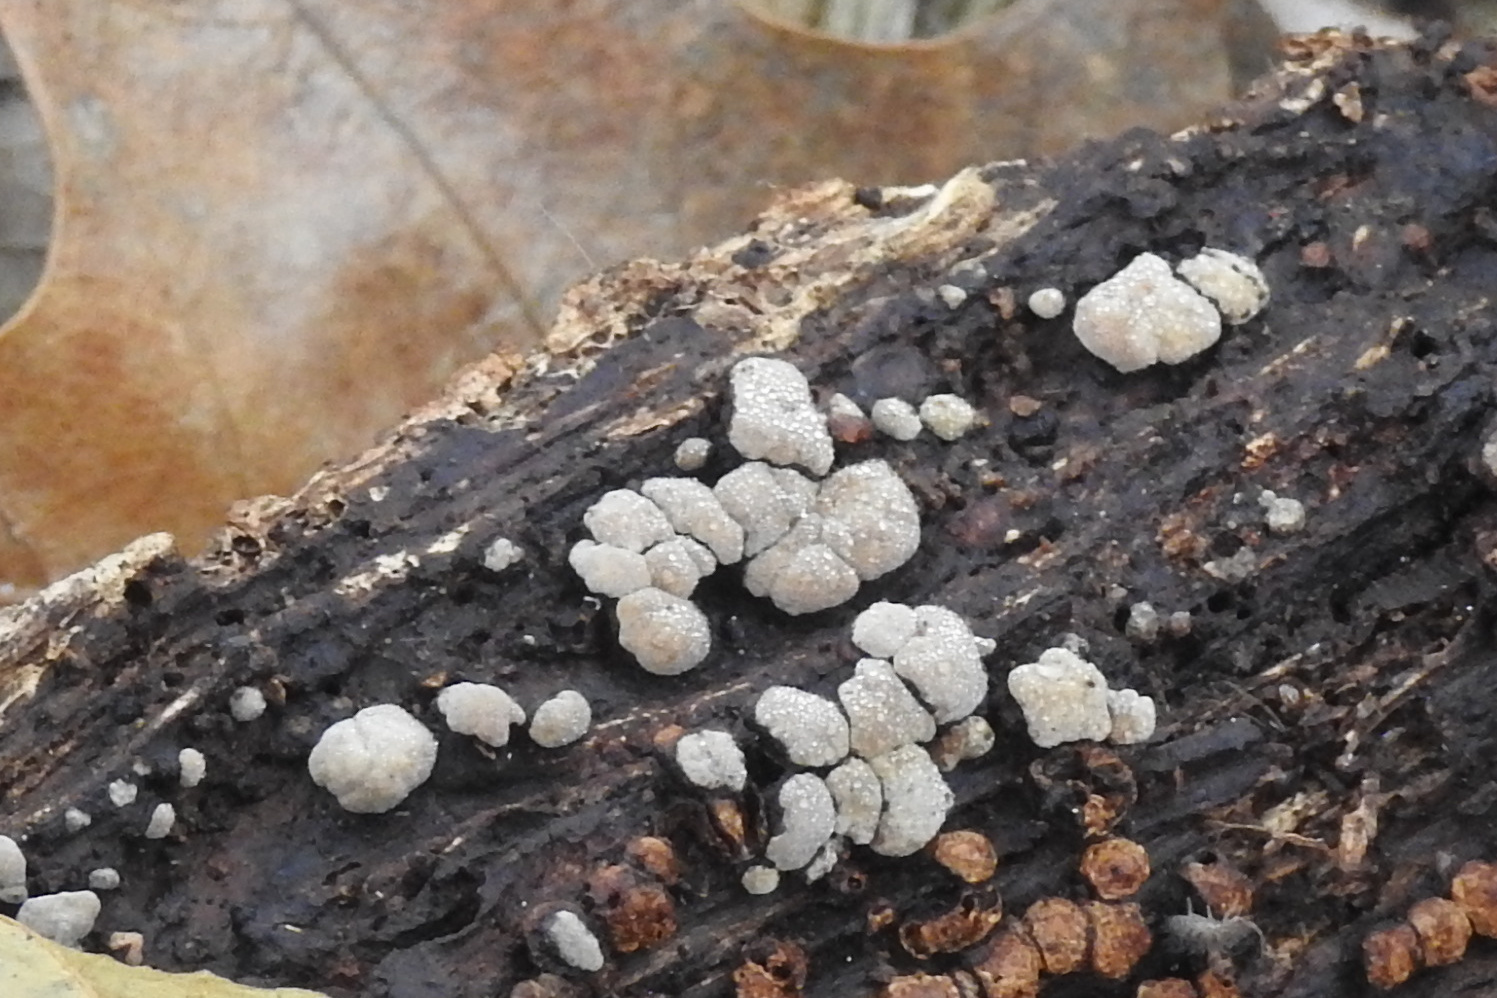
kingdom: Fungi
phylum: Basidiomycota
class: Agaricomycetes
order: Russulales
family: Stereaceae
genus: Xylobolus
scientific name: Xylobolus frustulatus
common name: Ceramic parchment
